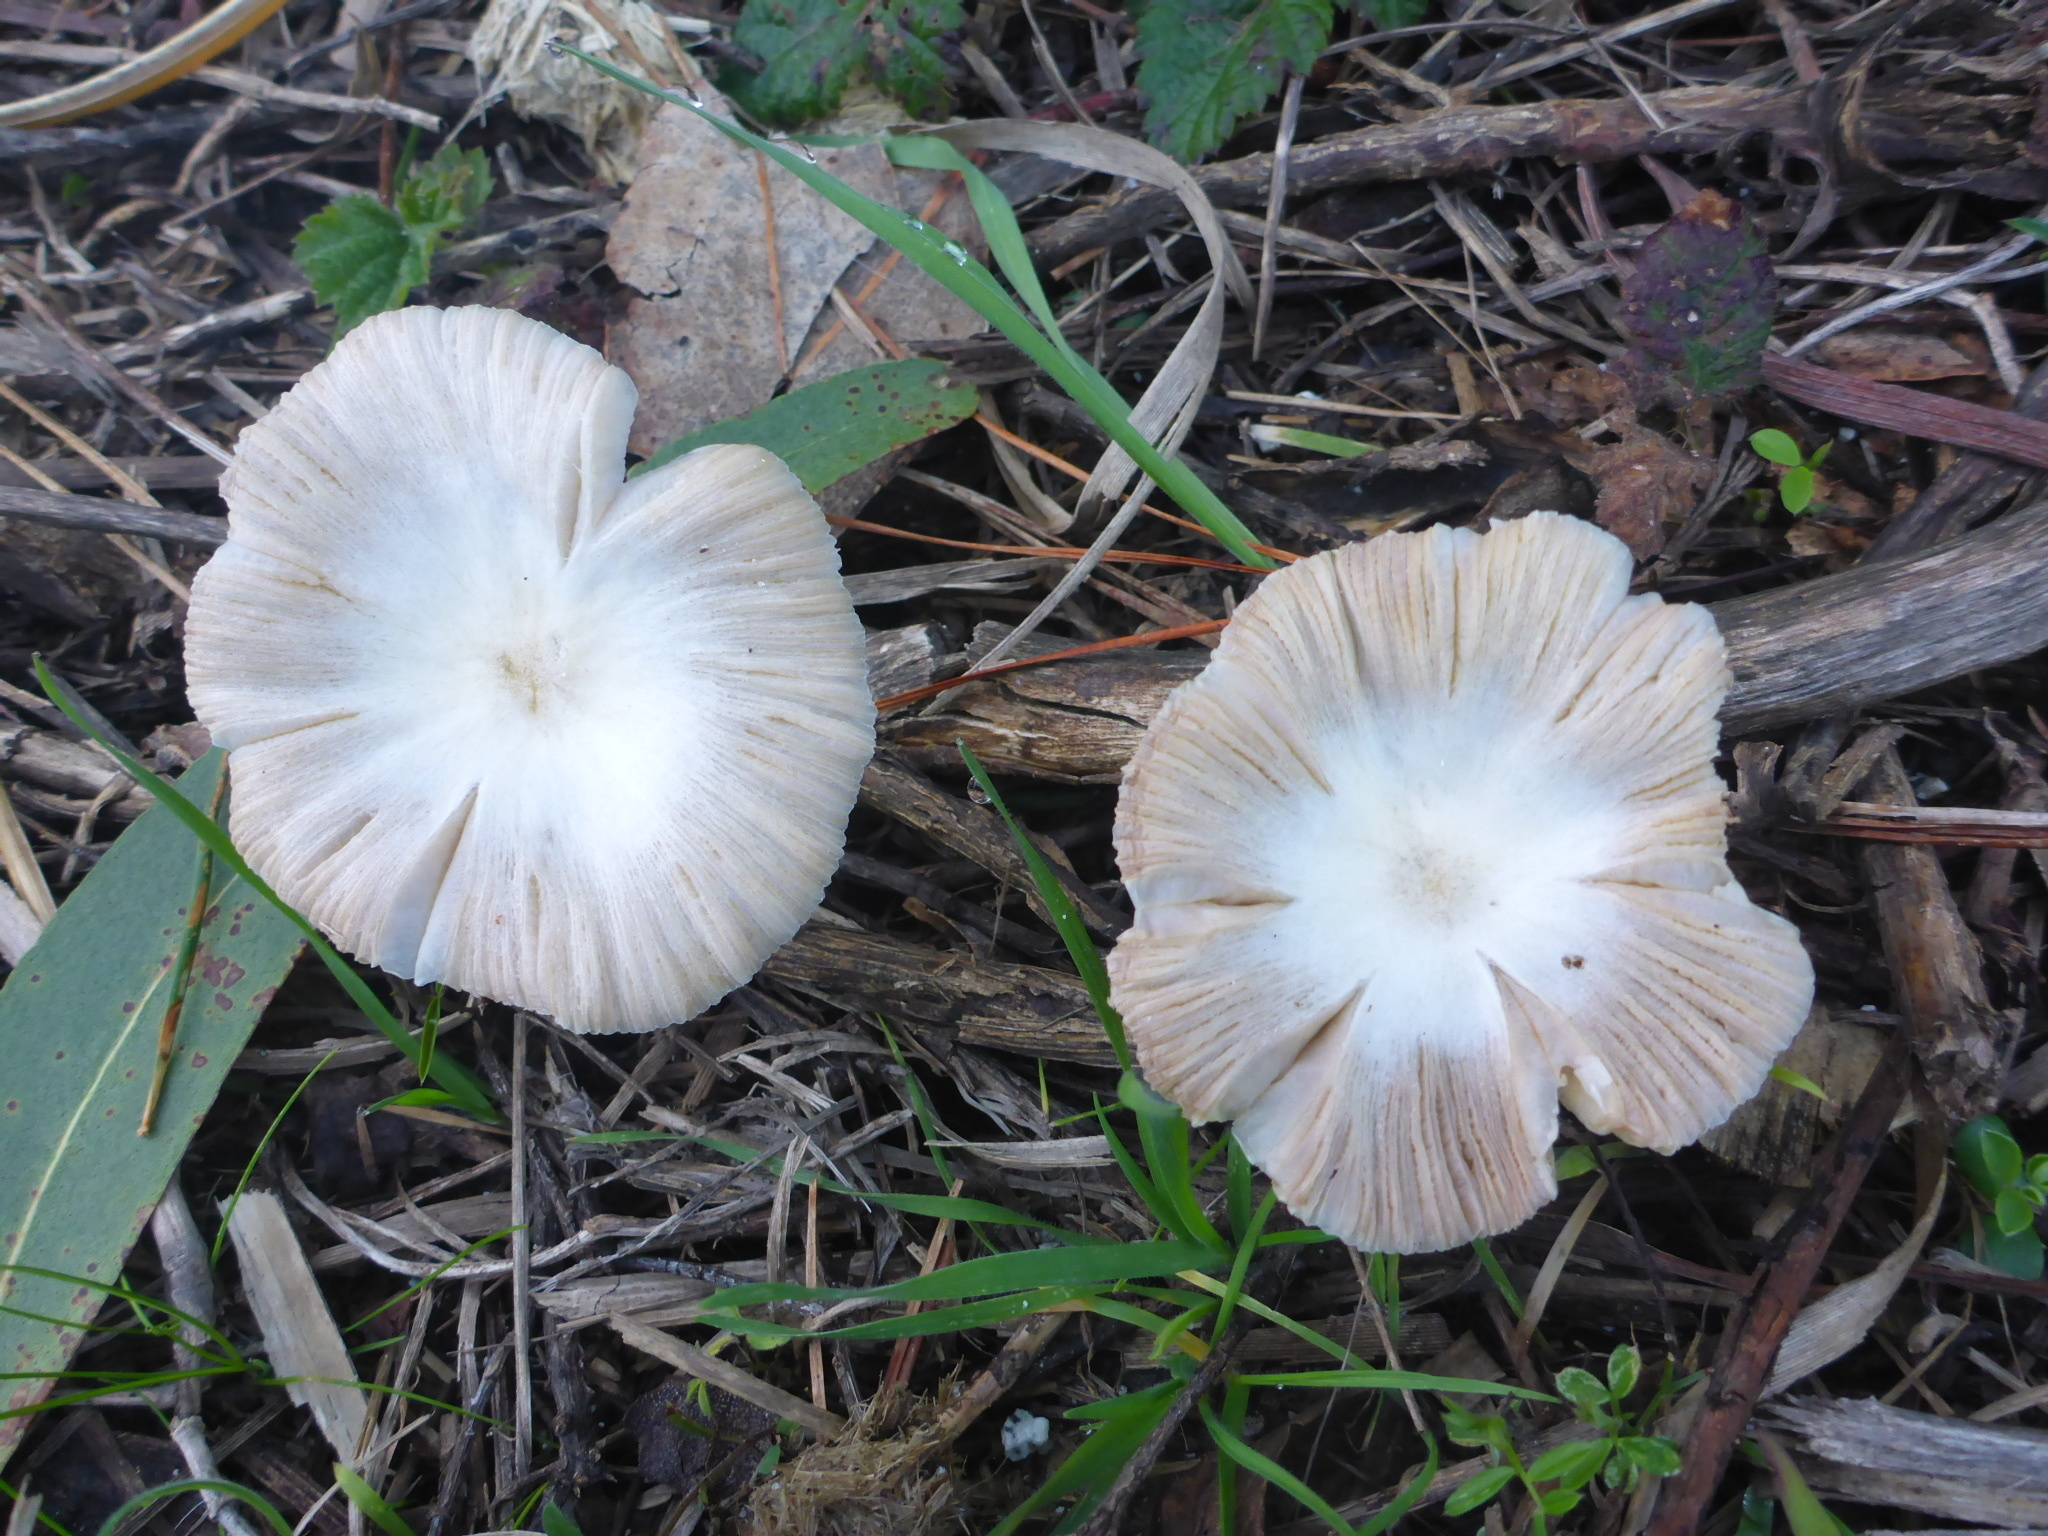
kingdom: Fungi
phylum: Basidiomycota
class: Agaricomycetes
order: Agaricales
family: Bolbitiaceae
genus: Bolbitius
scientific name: Bolbitius titubans
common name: Yellow fieldcap
